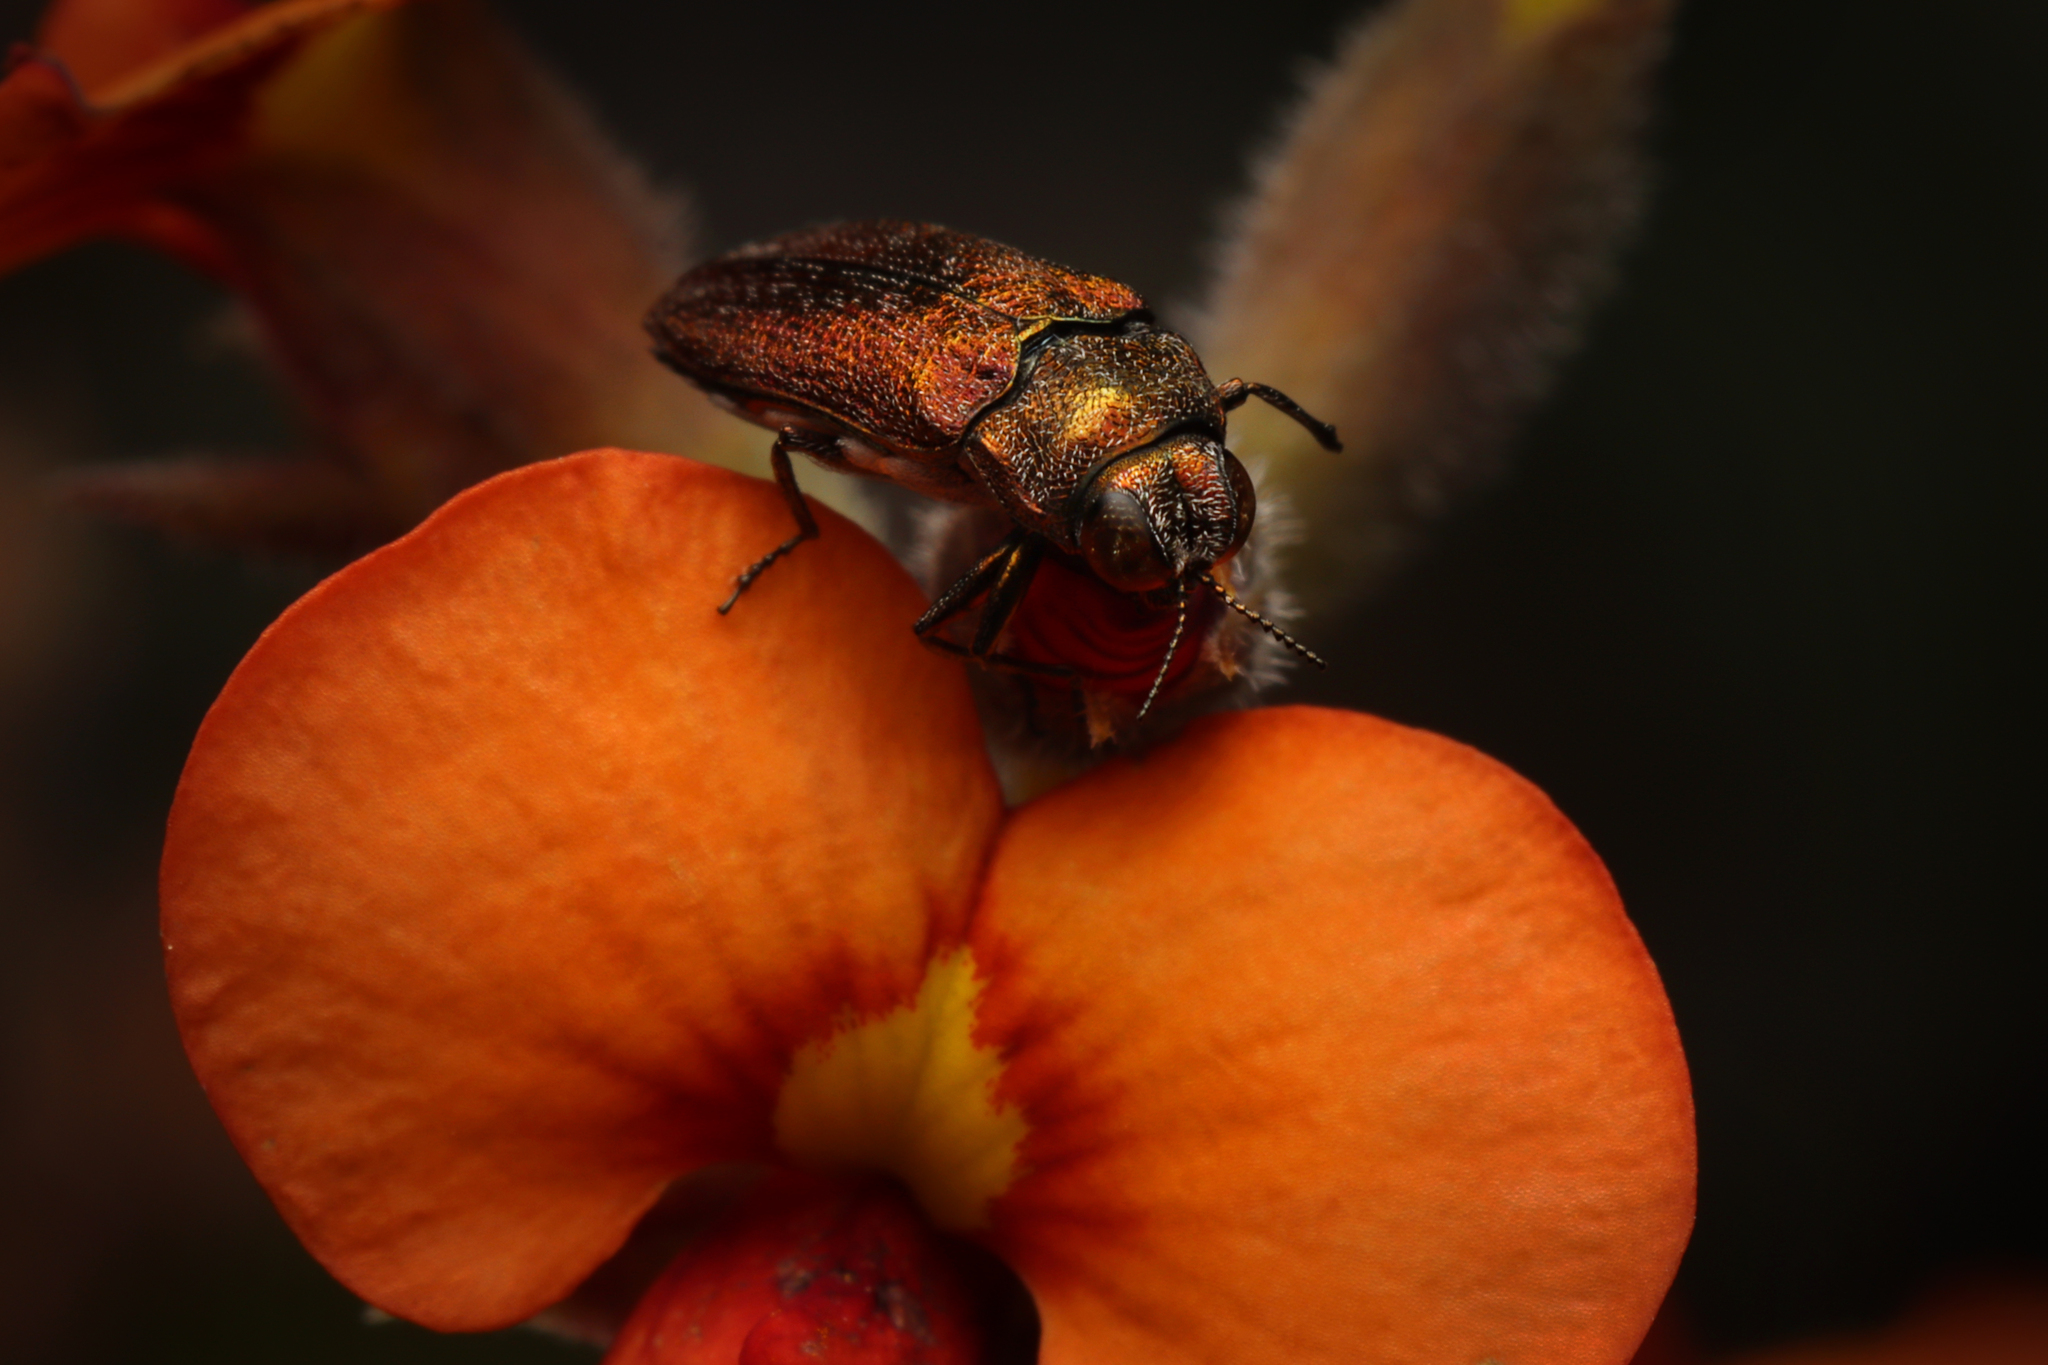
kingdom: Animalia
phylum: Arthropoda
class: Insecta
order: Coleoptera
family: Buprestidae
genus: Ethonion
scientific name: Ethonion leai
